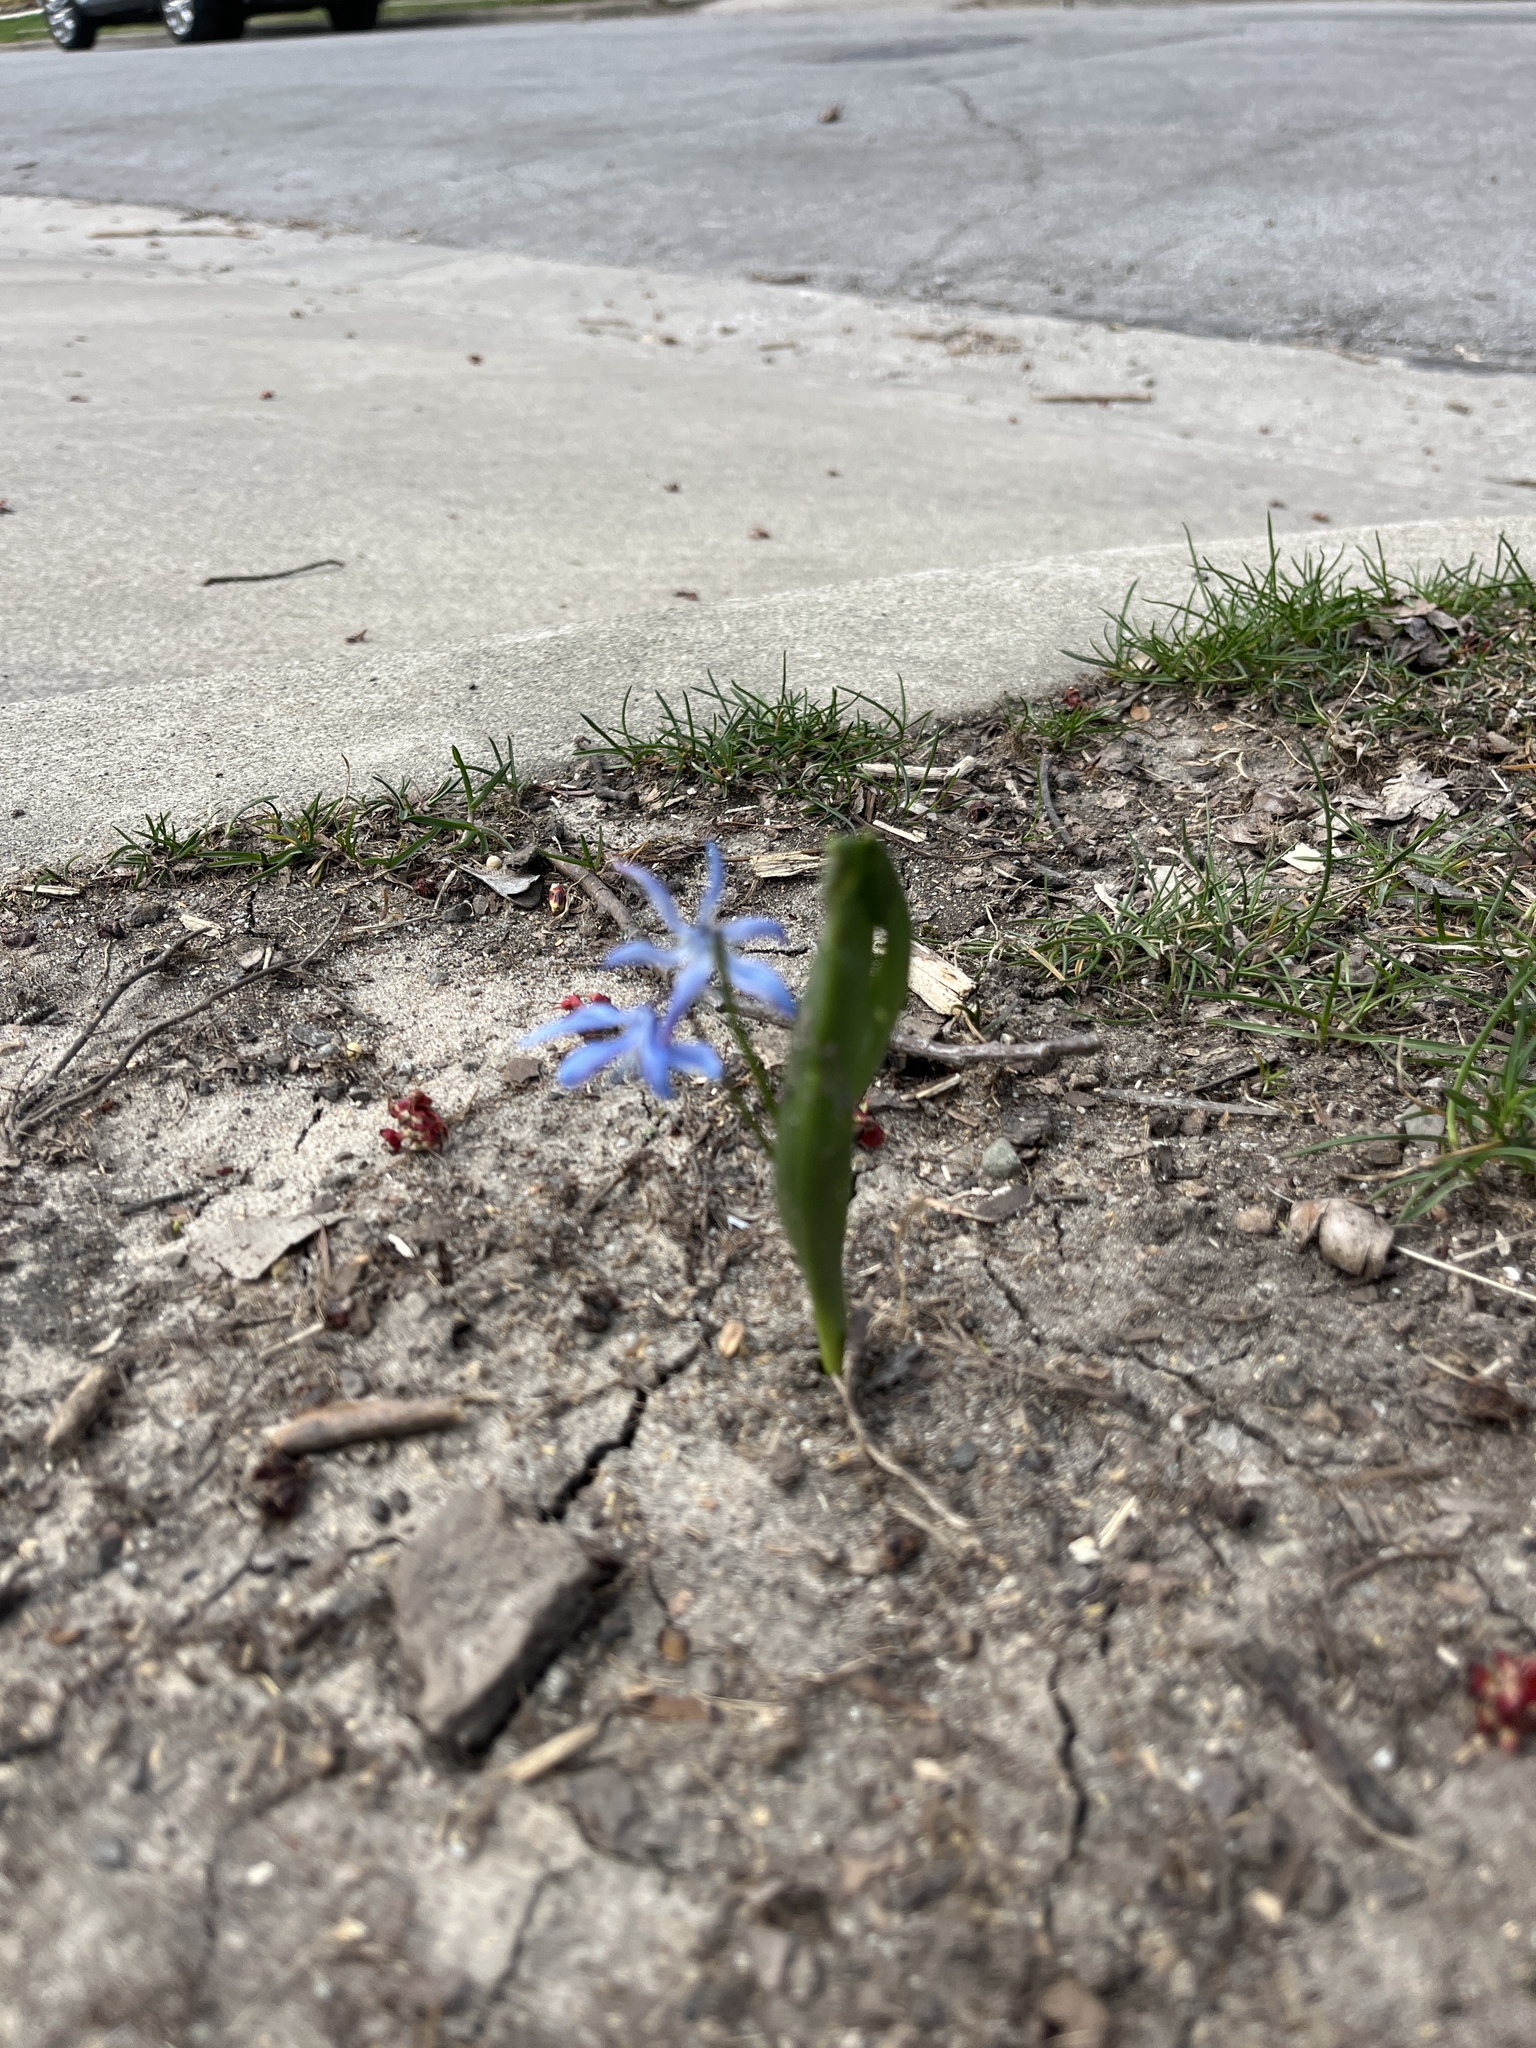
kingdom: Plantae
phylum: Tracheophyta
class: Liliopsida
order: Asparagales
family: Asparagaceae
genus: Scilla
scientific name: Scilla siberica
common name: Siberian squill
